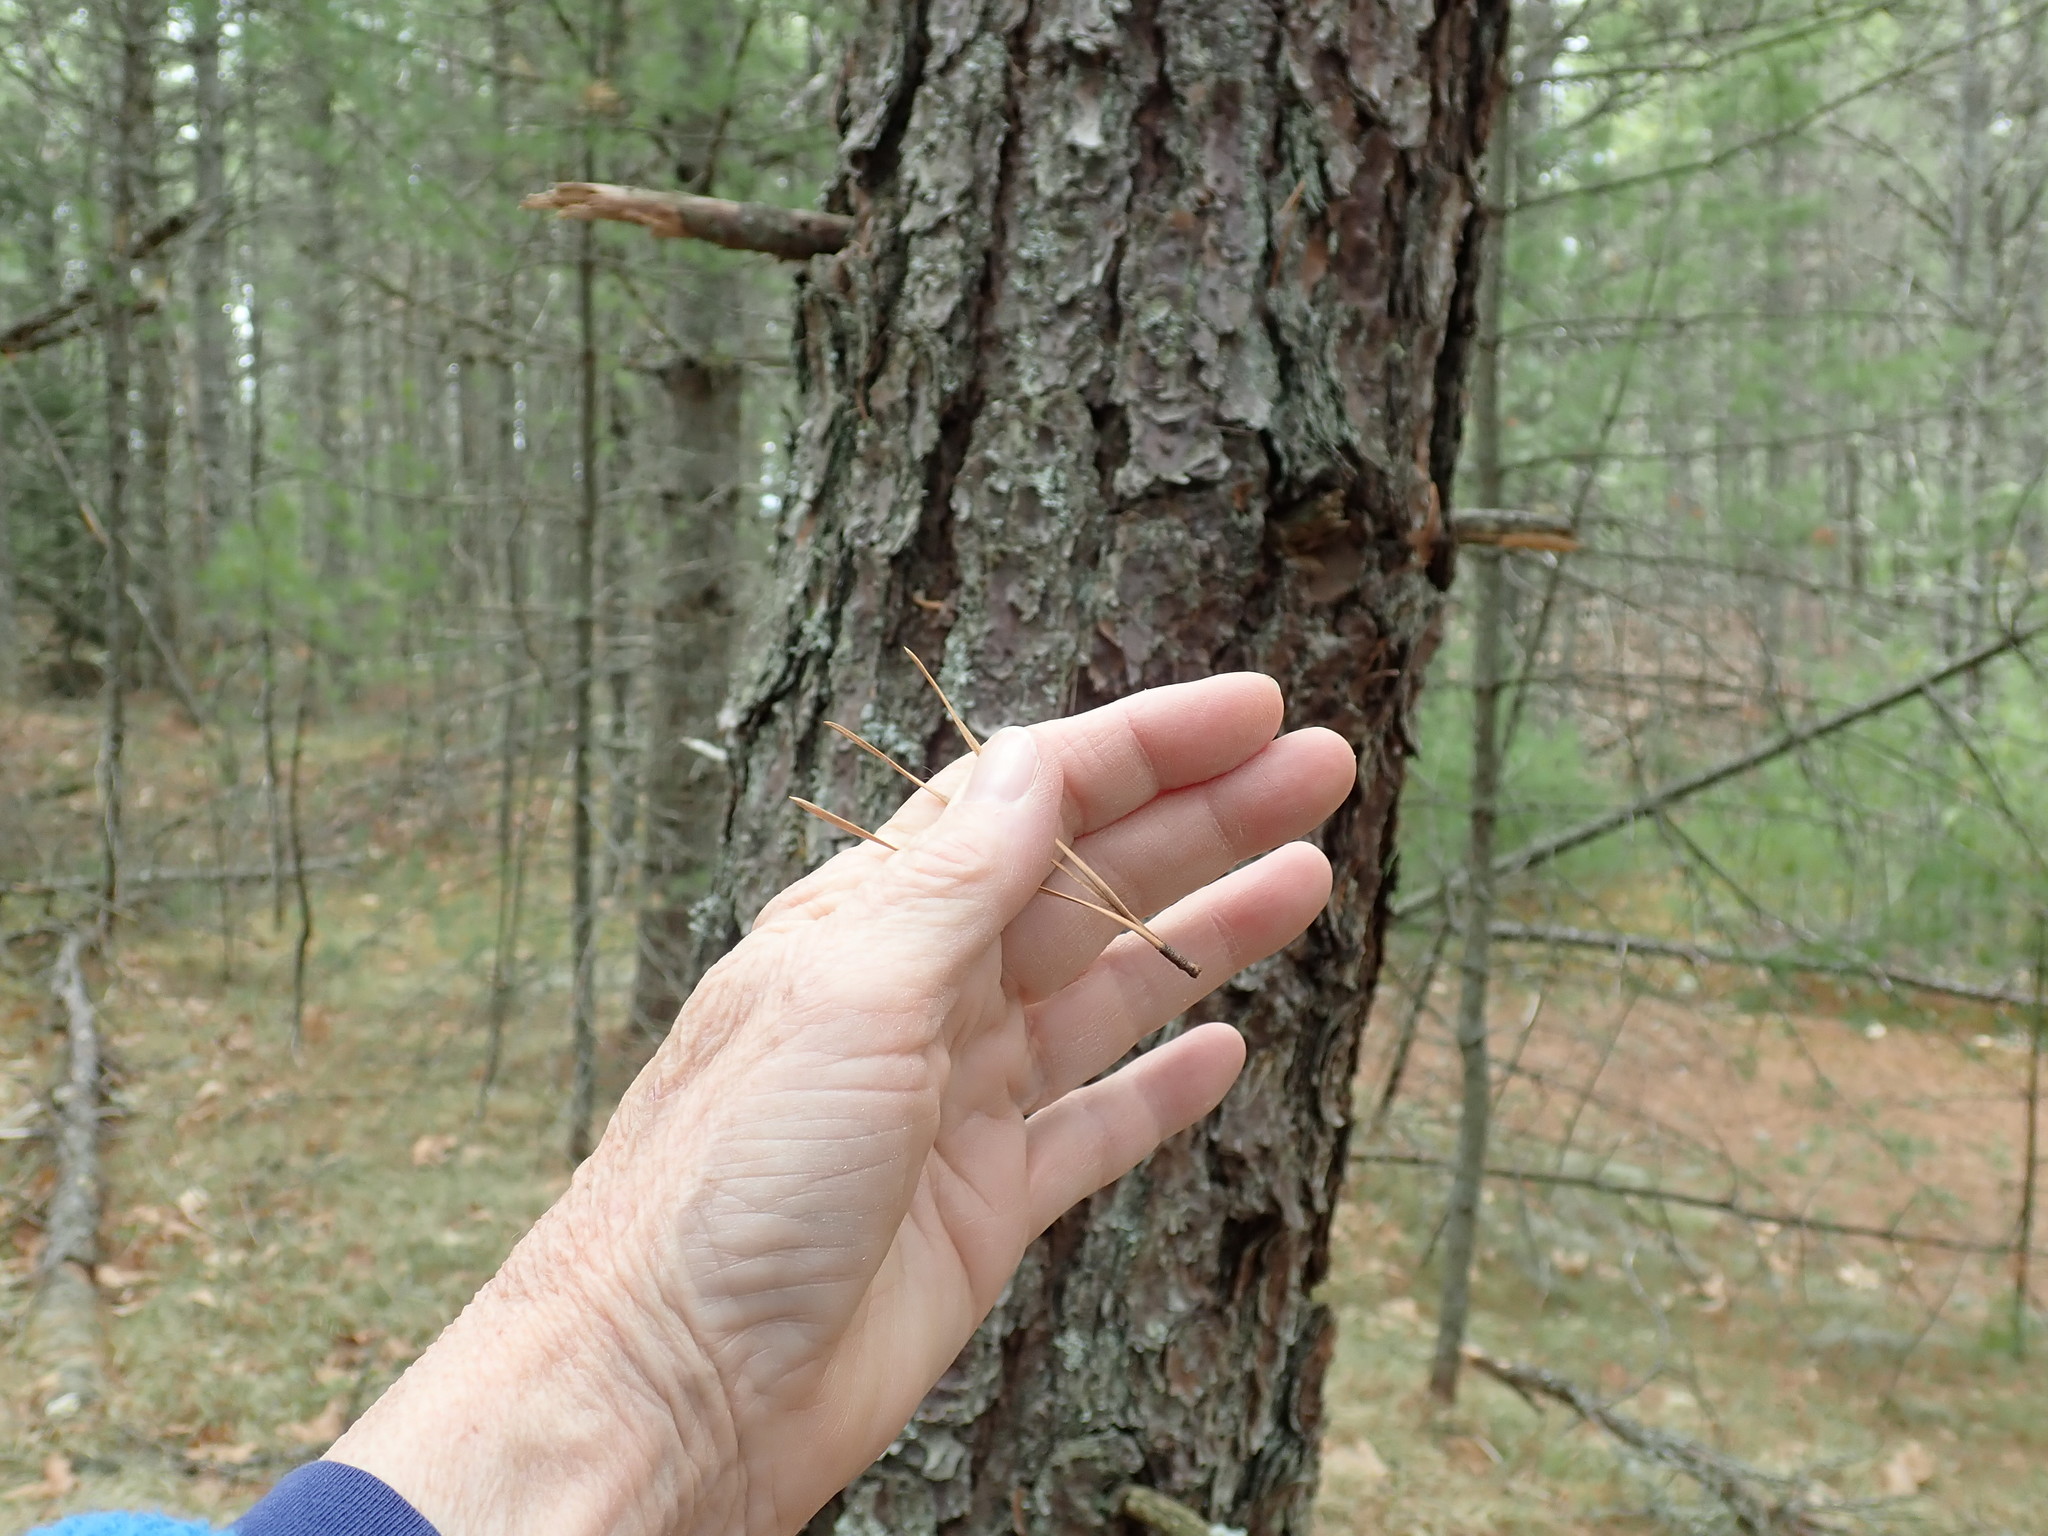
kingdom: Plantae
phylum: Tracheophyta
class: Pinopsida
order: Pinales
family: Pinaceae
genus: Pinus
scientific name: Pinus rigida
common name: Pitch pine
